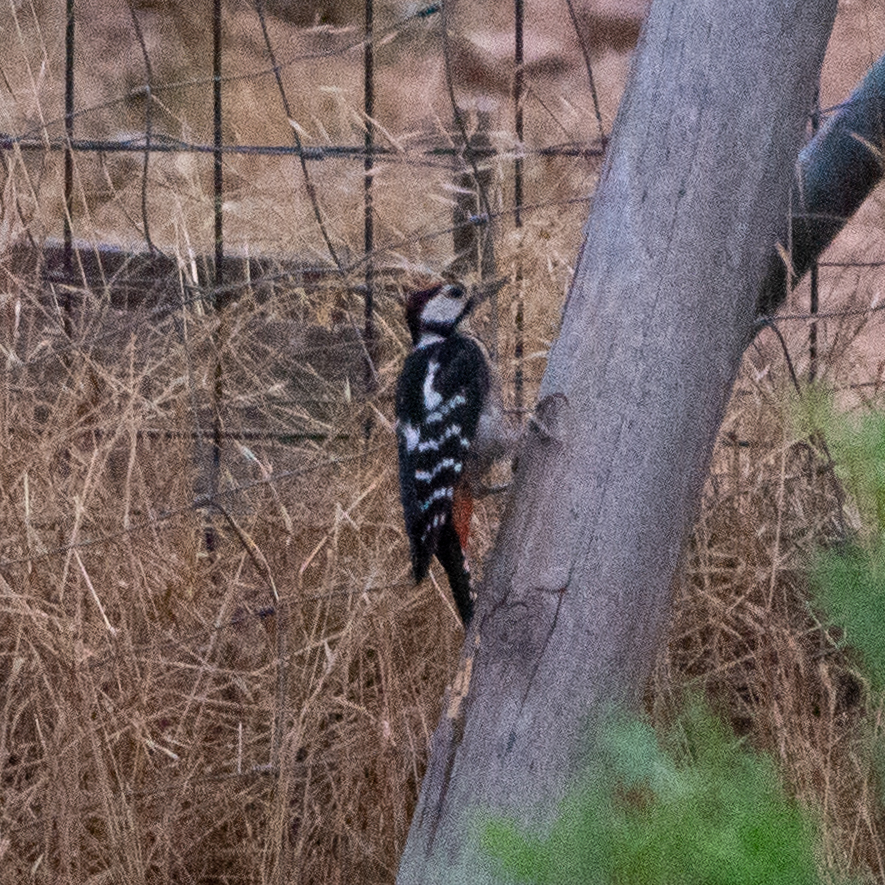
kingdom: Animalia
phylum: Chordata
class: Aves
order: Piciformes
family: Picidae
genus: Dendrocopos
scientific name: Dendrocopos major
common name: Great spotted woodpecker
